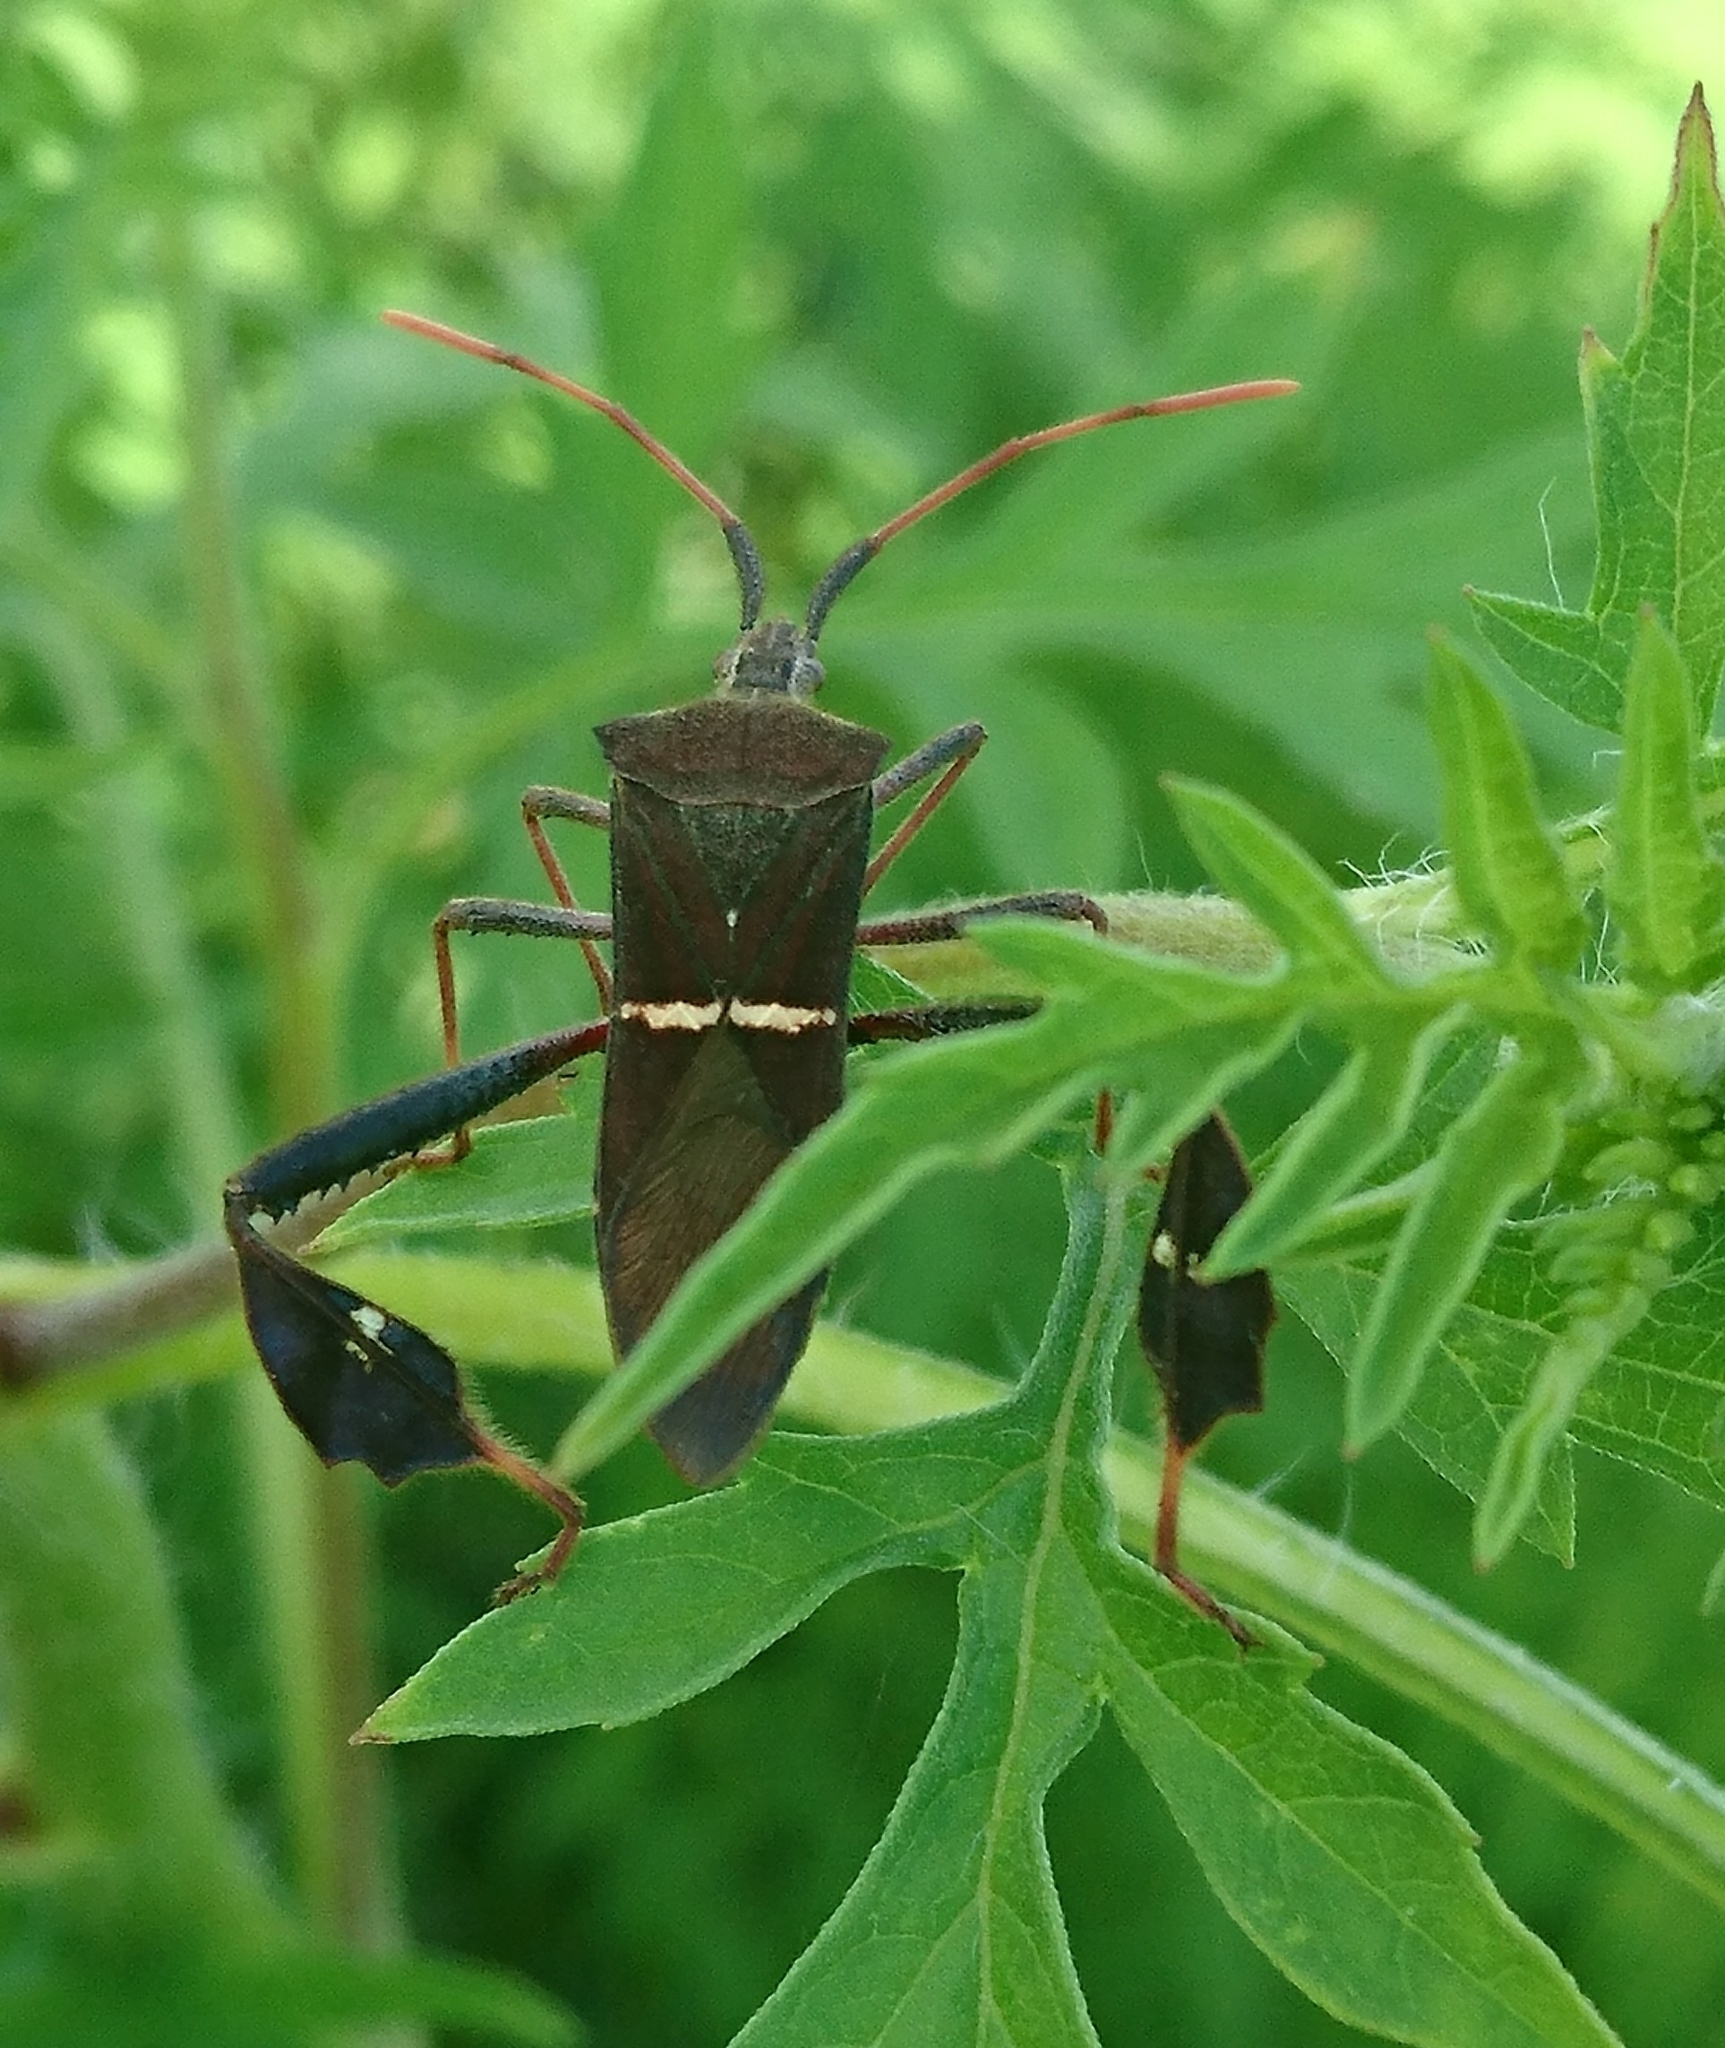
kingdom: Animalia
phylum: Arthropoda
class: Insecta
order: Hemiptera
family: Coreidae
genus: Leptoglossus
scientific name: Leptoglossus phyllopus
